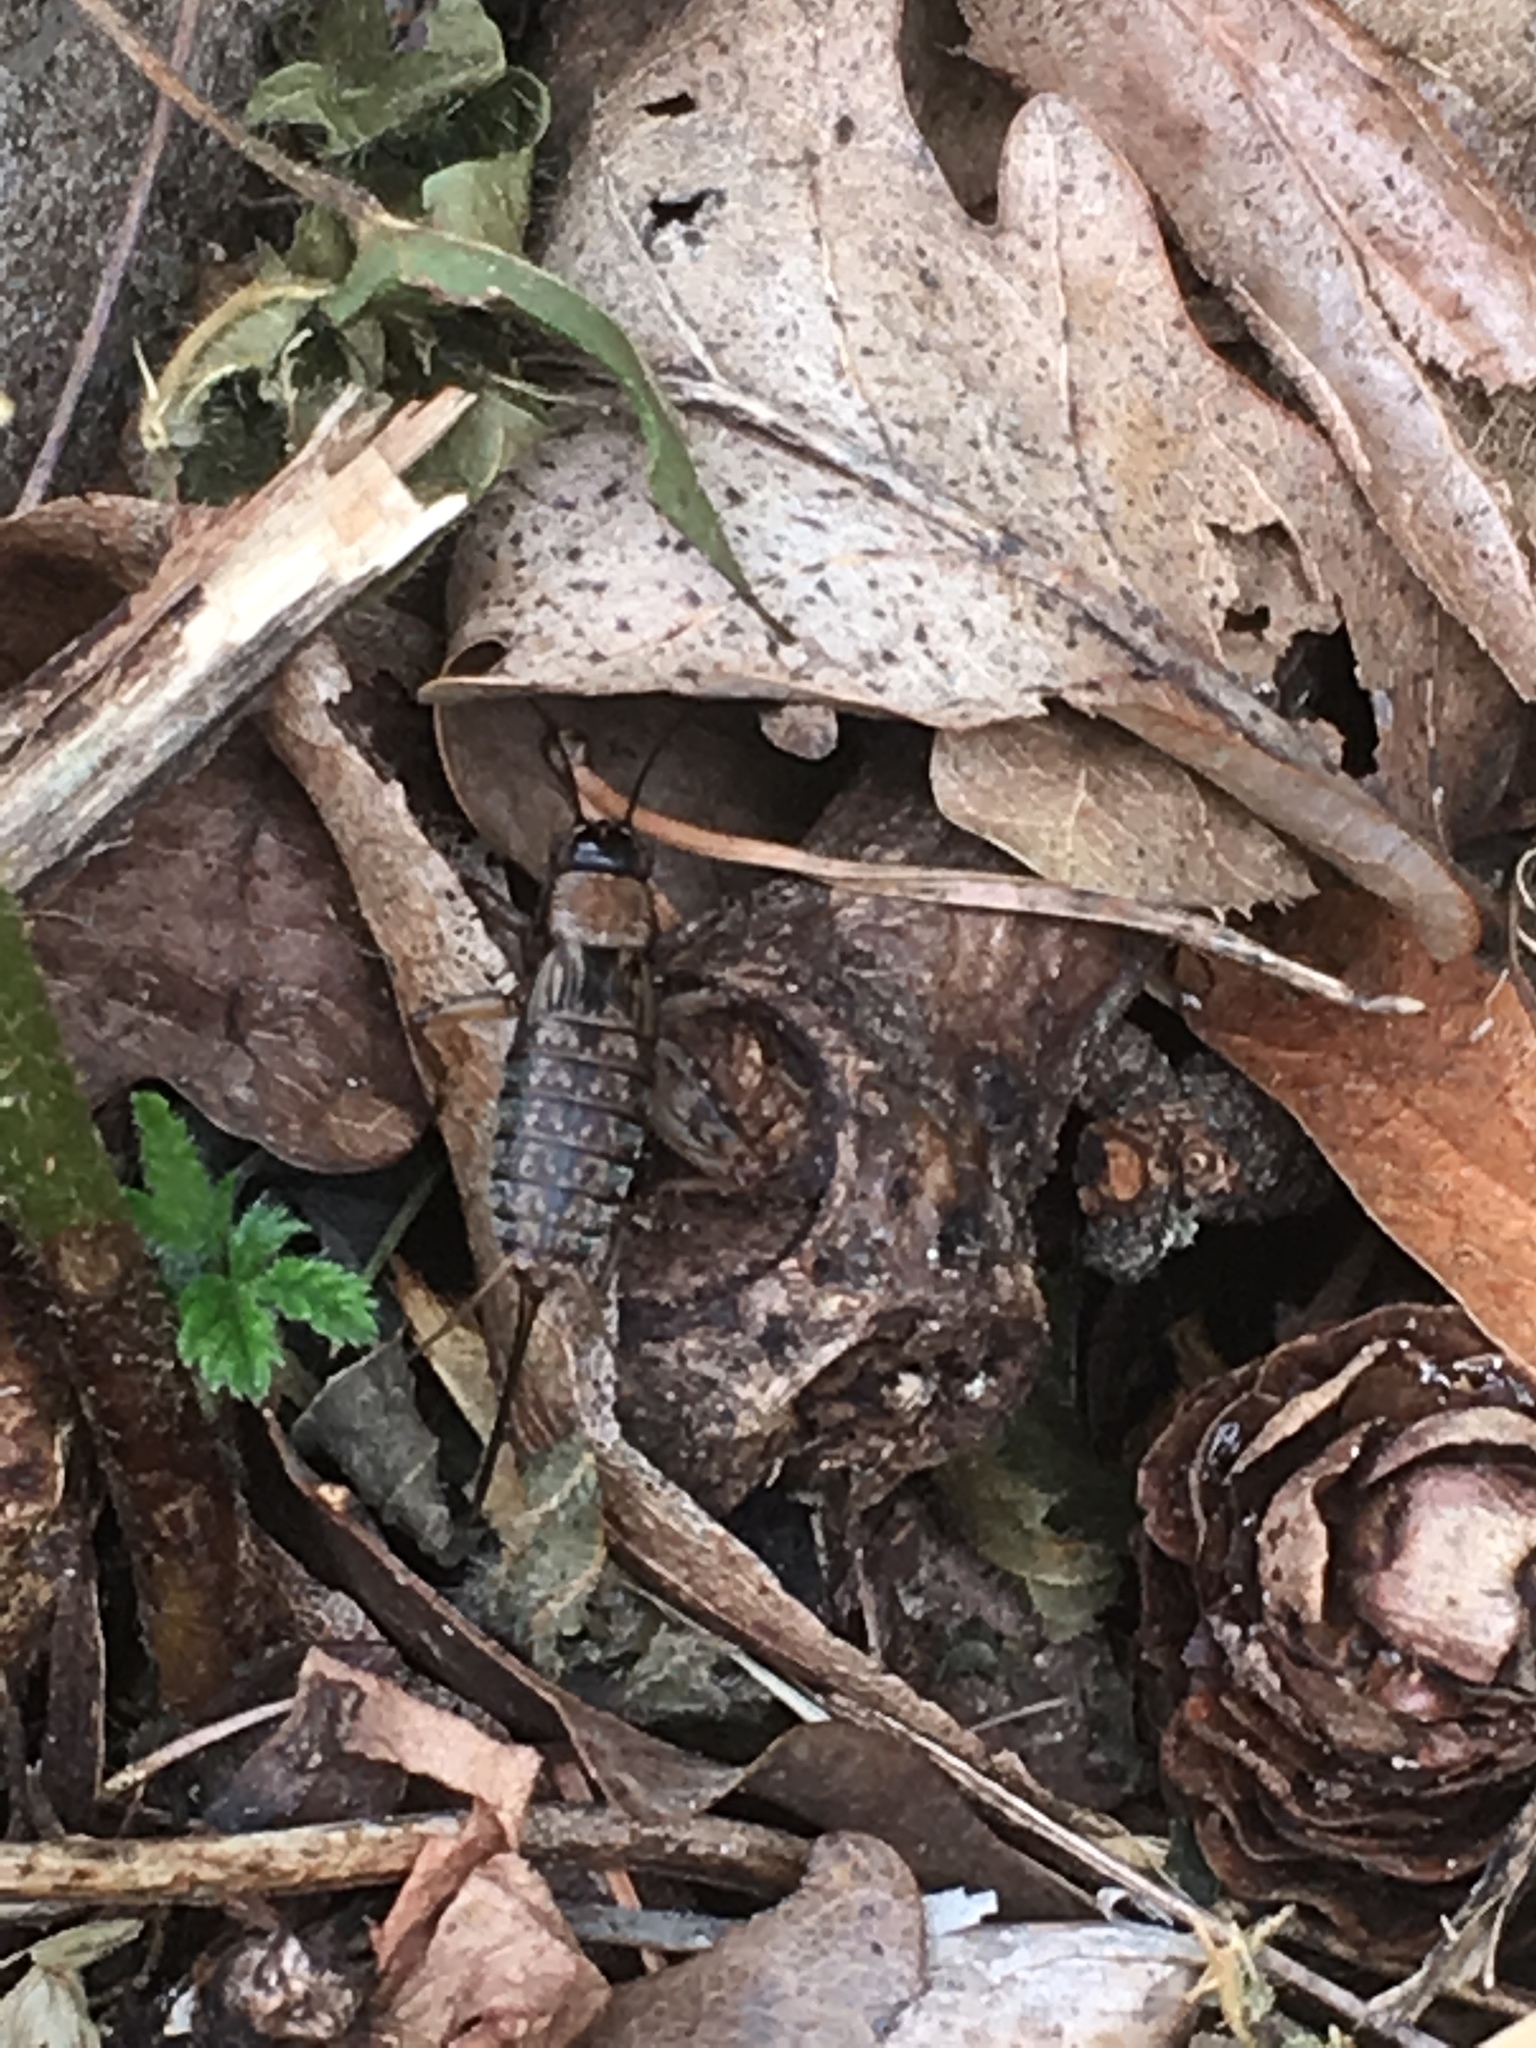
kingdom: Animalia
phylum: Arthropoda
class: Insecta
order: Orthoptera
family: Trigonidiidae
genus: Nemobius
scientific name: Nemobius sylvestris
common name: Wood-cricket
